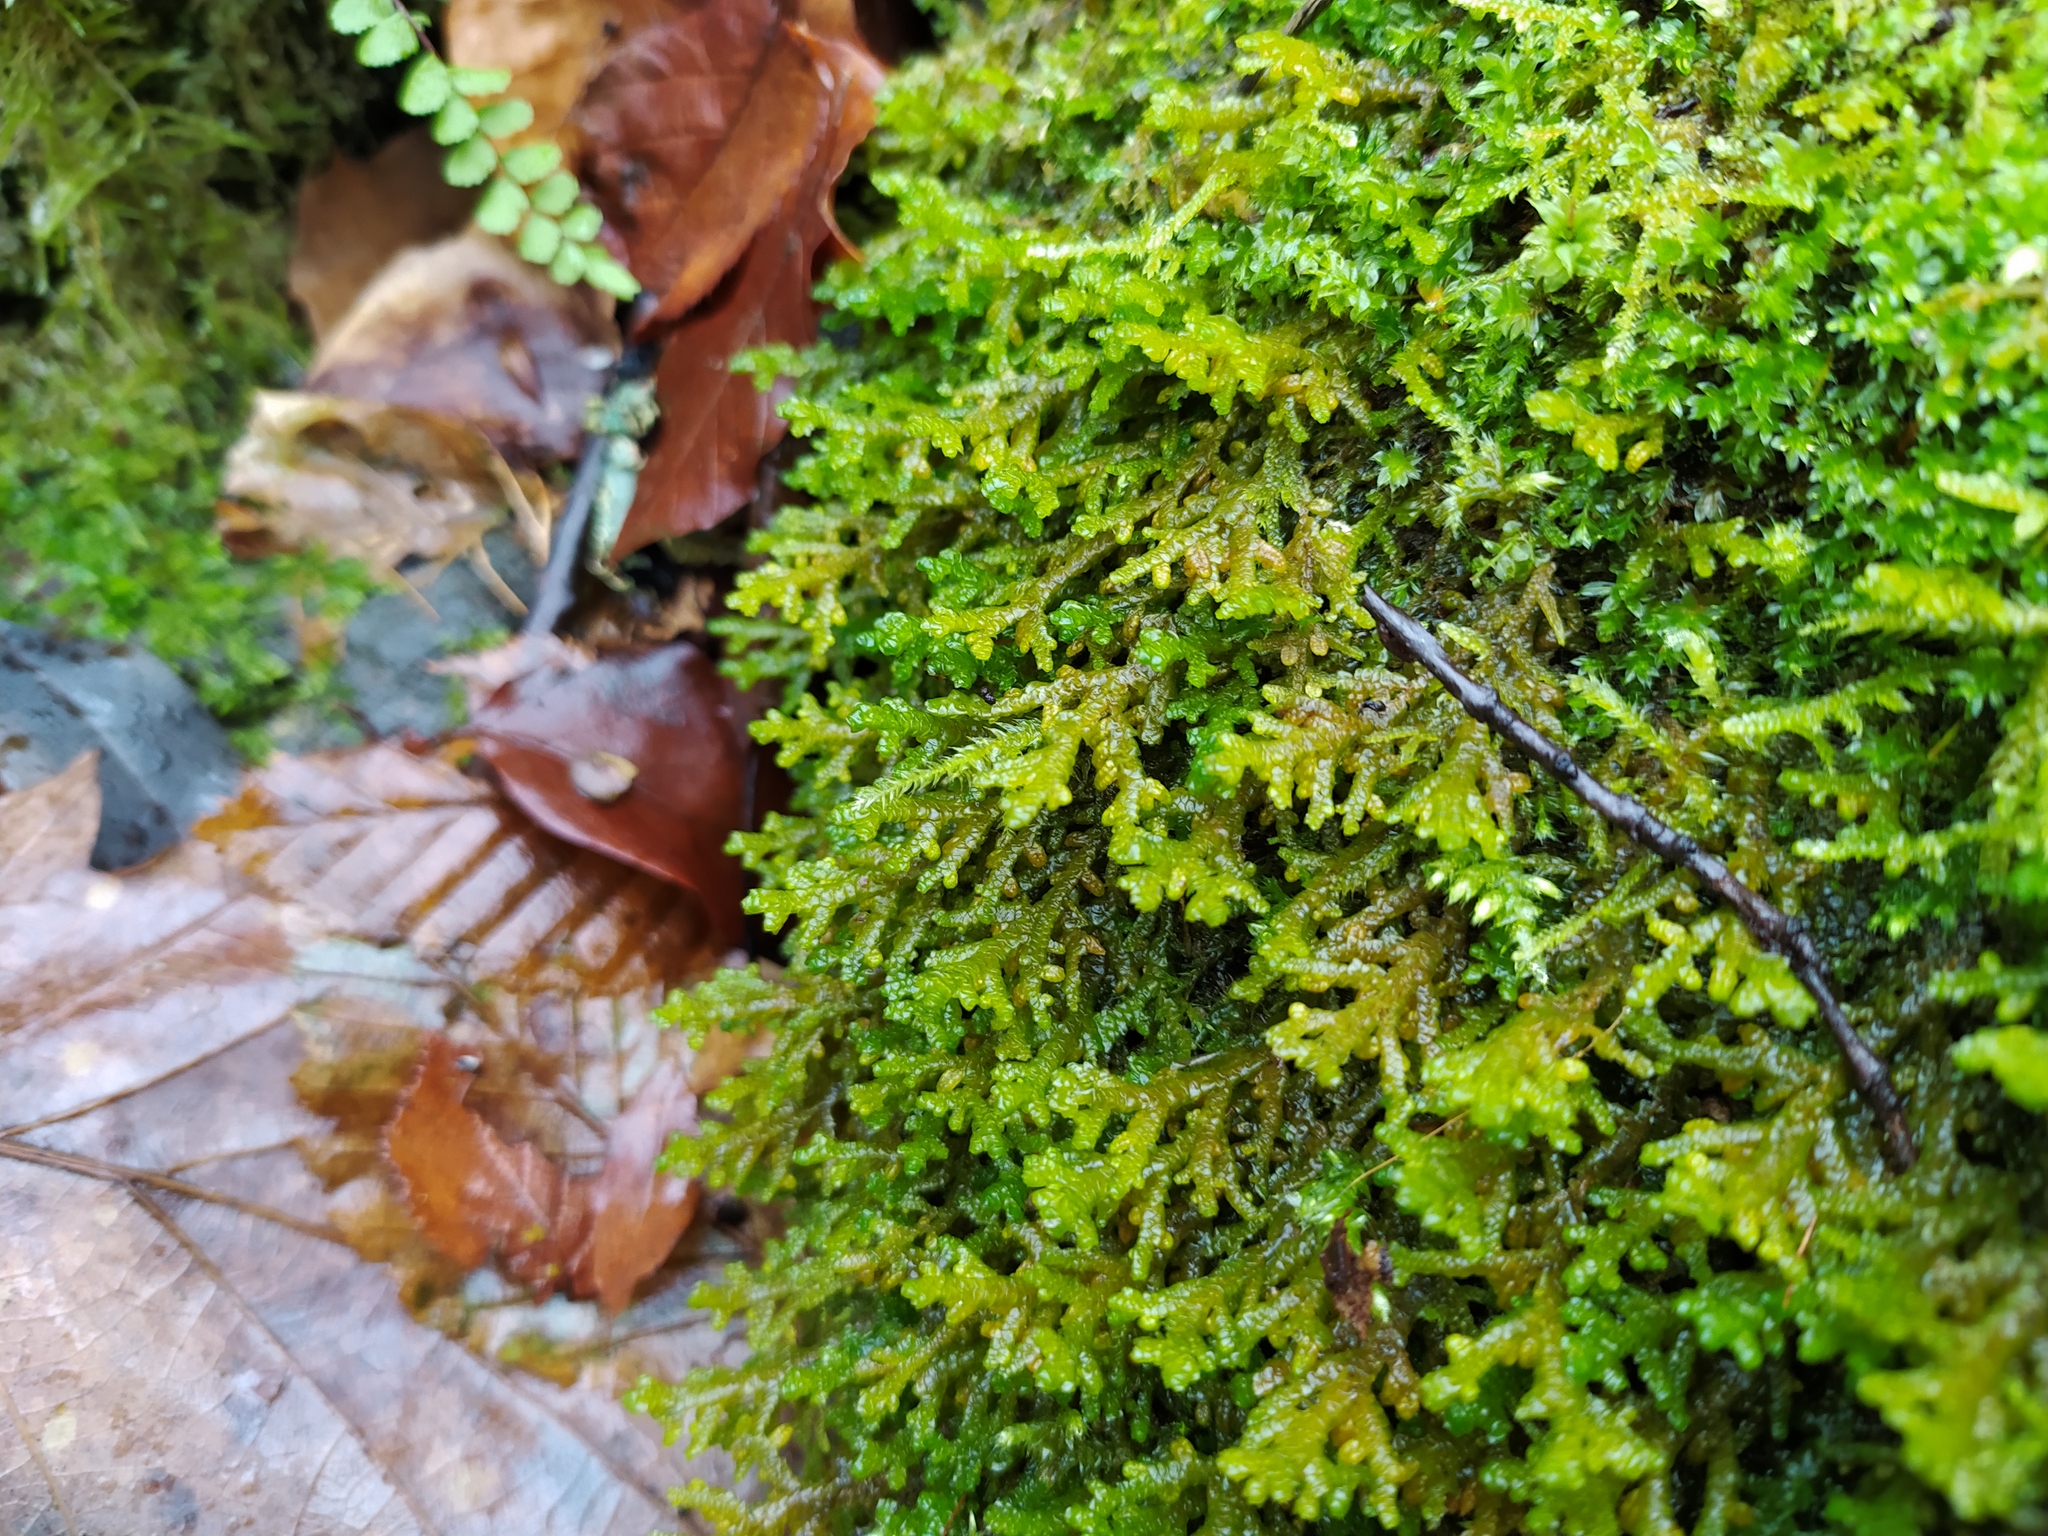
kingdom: Plantae
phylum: Marchantiophyta
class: Jungermanniopsida
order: Porellales
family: Porellaceae
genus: Porella
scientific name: Porella platyphylla
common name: Wall scalewort
